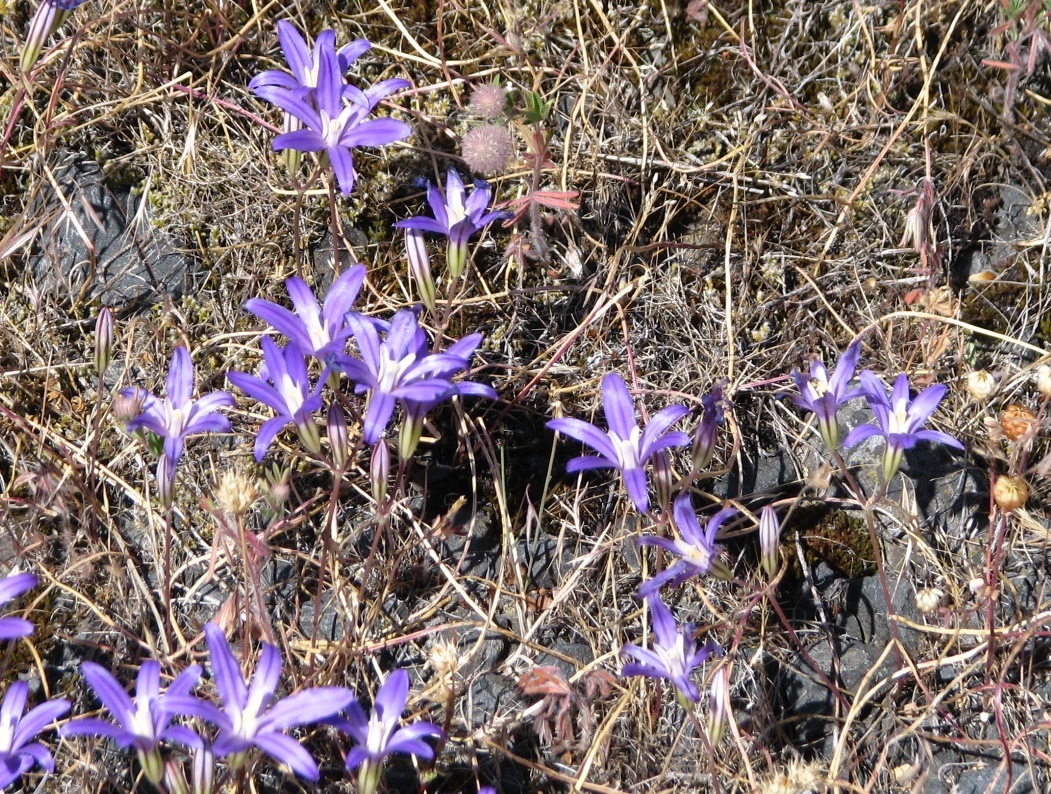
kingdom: Plantae
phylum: Tracheophyta
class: Liliopsida
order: Asparagales
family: Asparagaceae
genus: Brodiaea
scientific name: Brodiaea coronaria
